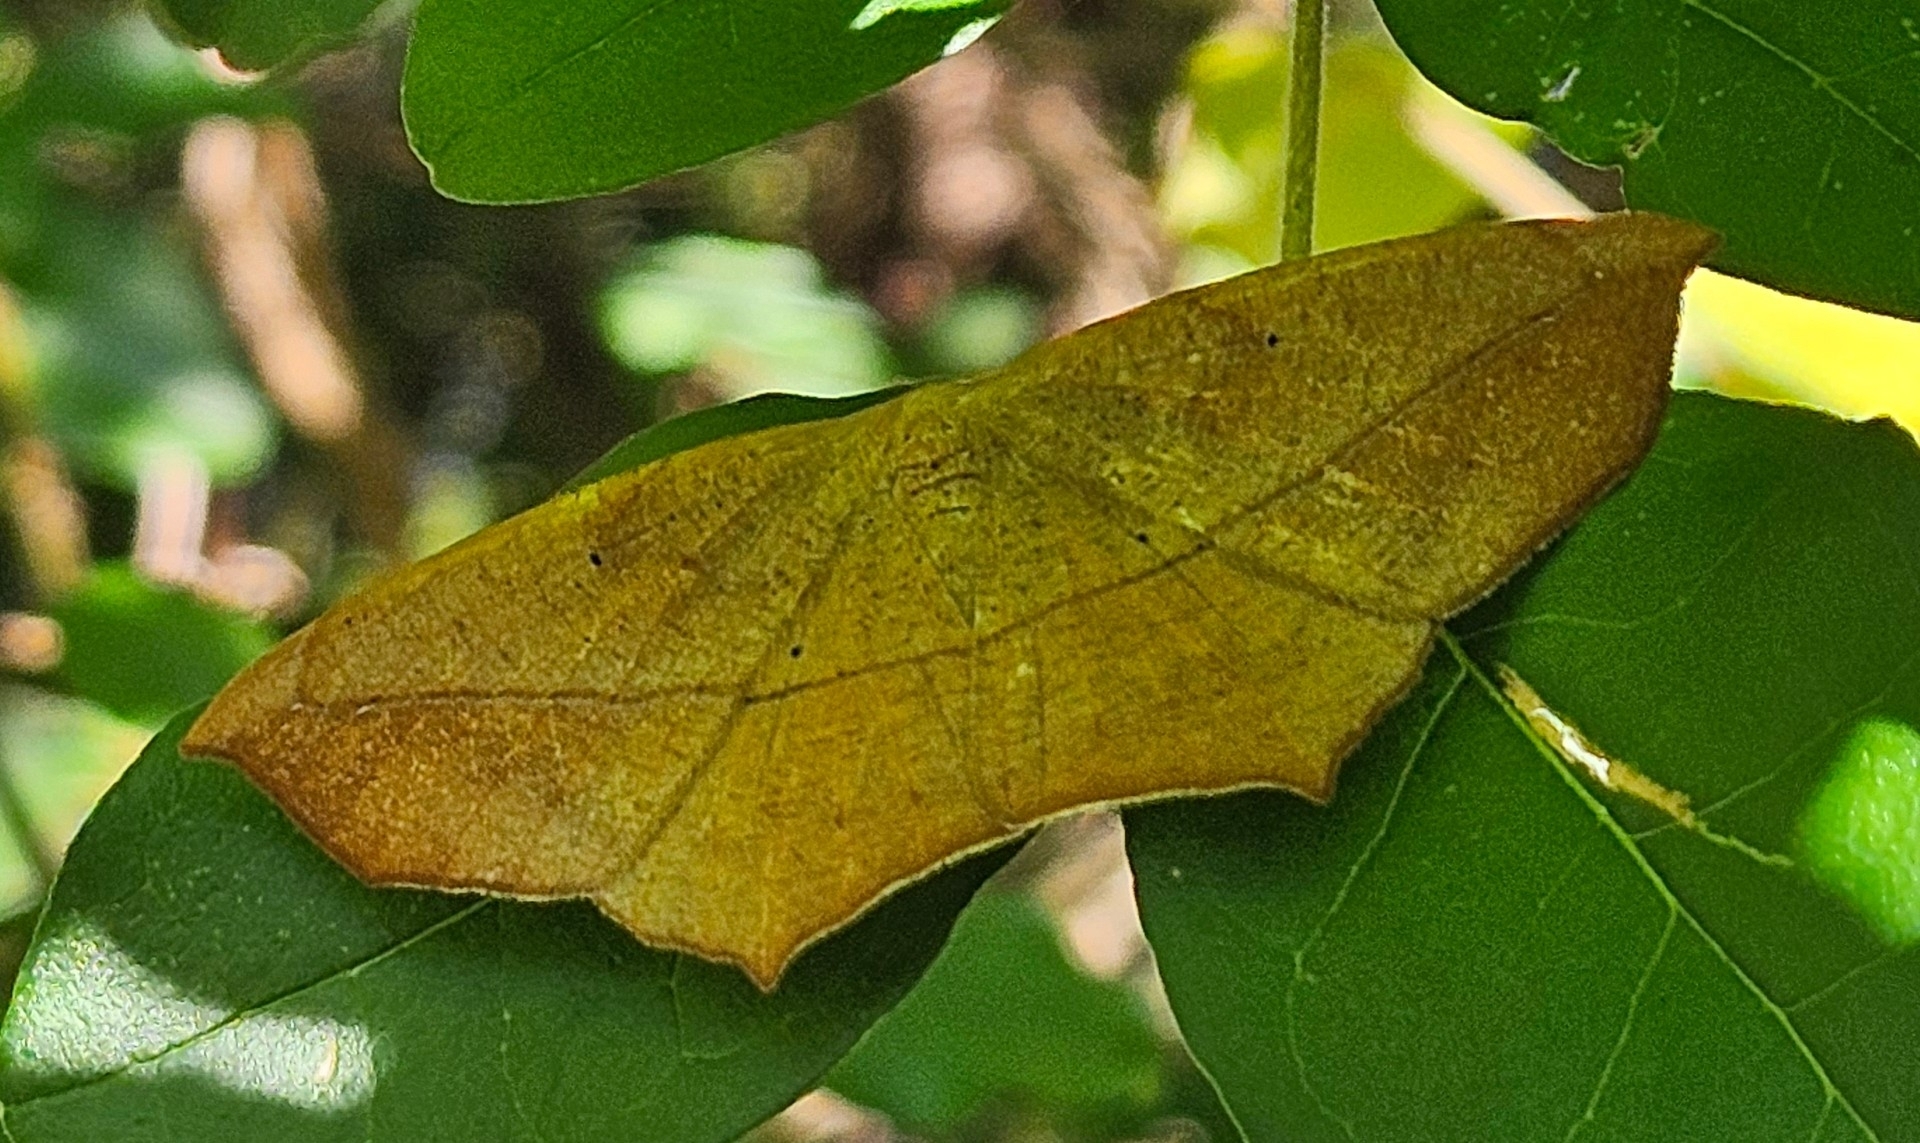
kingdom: Animalia
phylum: Arthropoda
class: Insecta
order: Lepidoptera
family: Geometridae
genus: Prochoerodes
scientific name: Prochoerodes lineola
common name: Large maple spanworm
